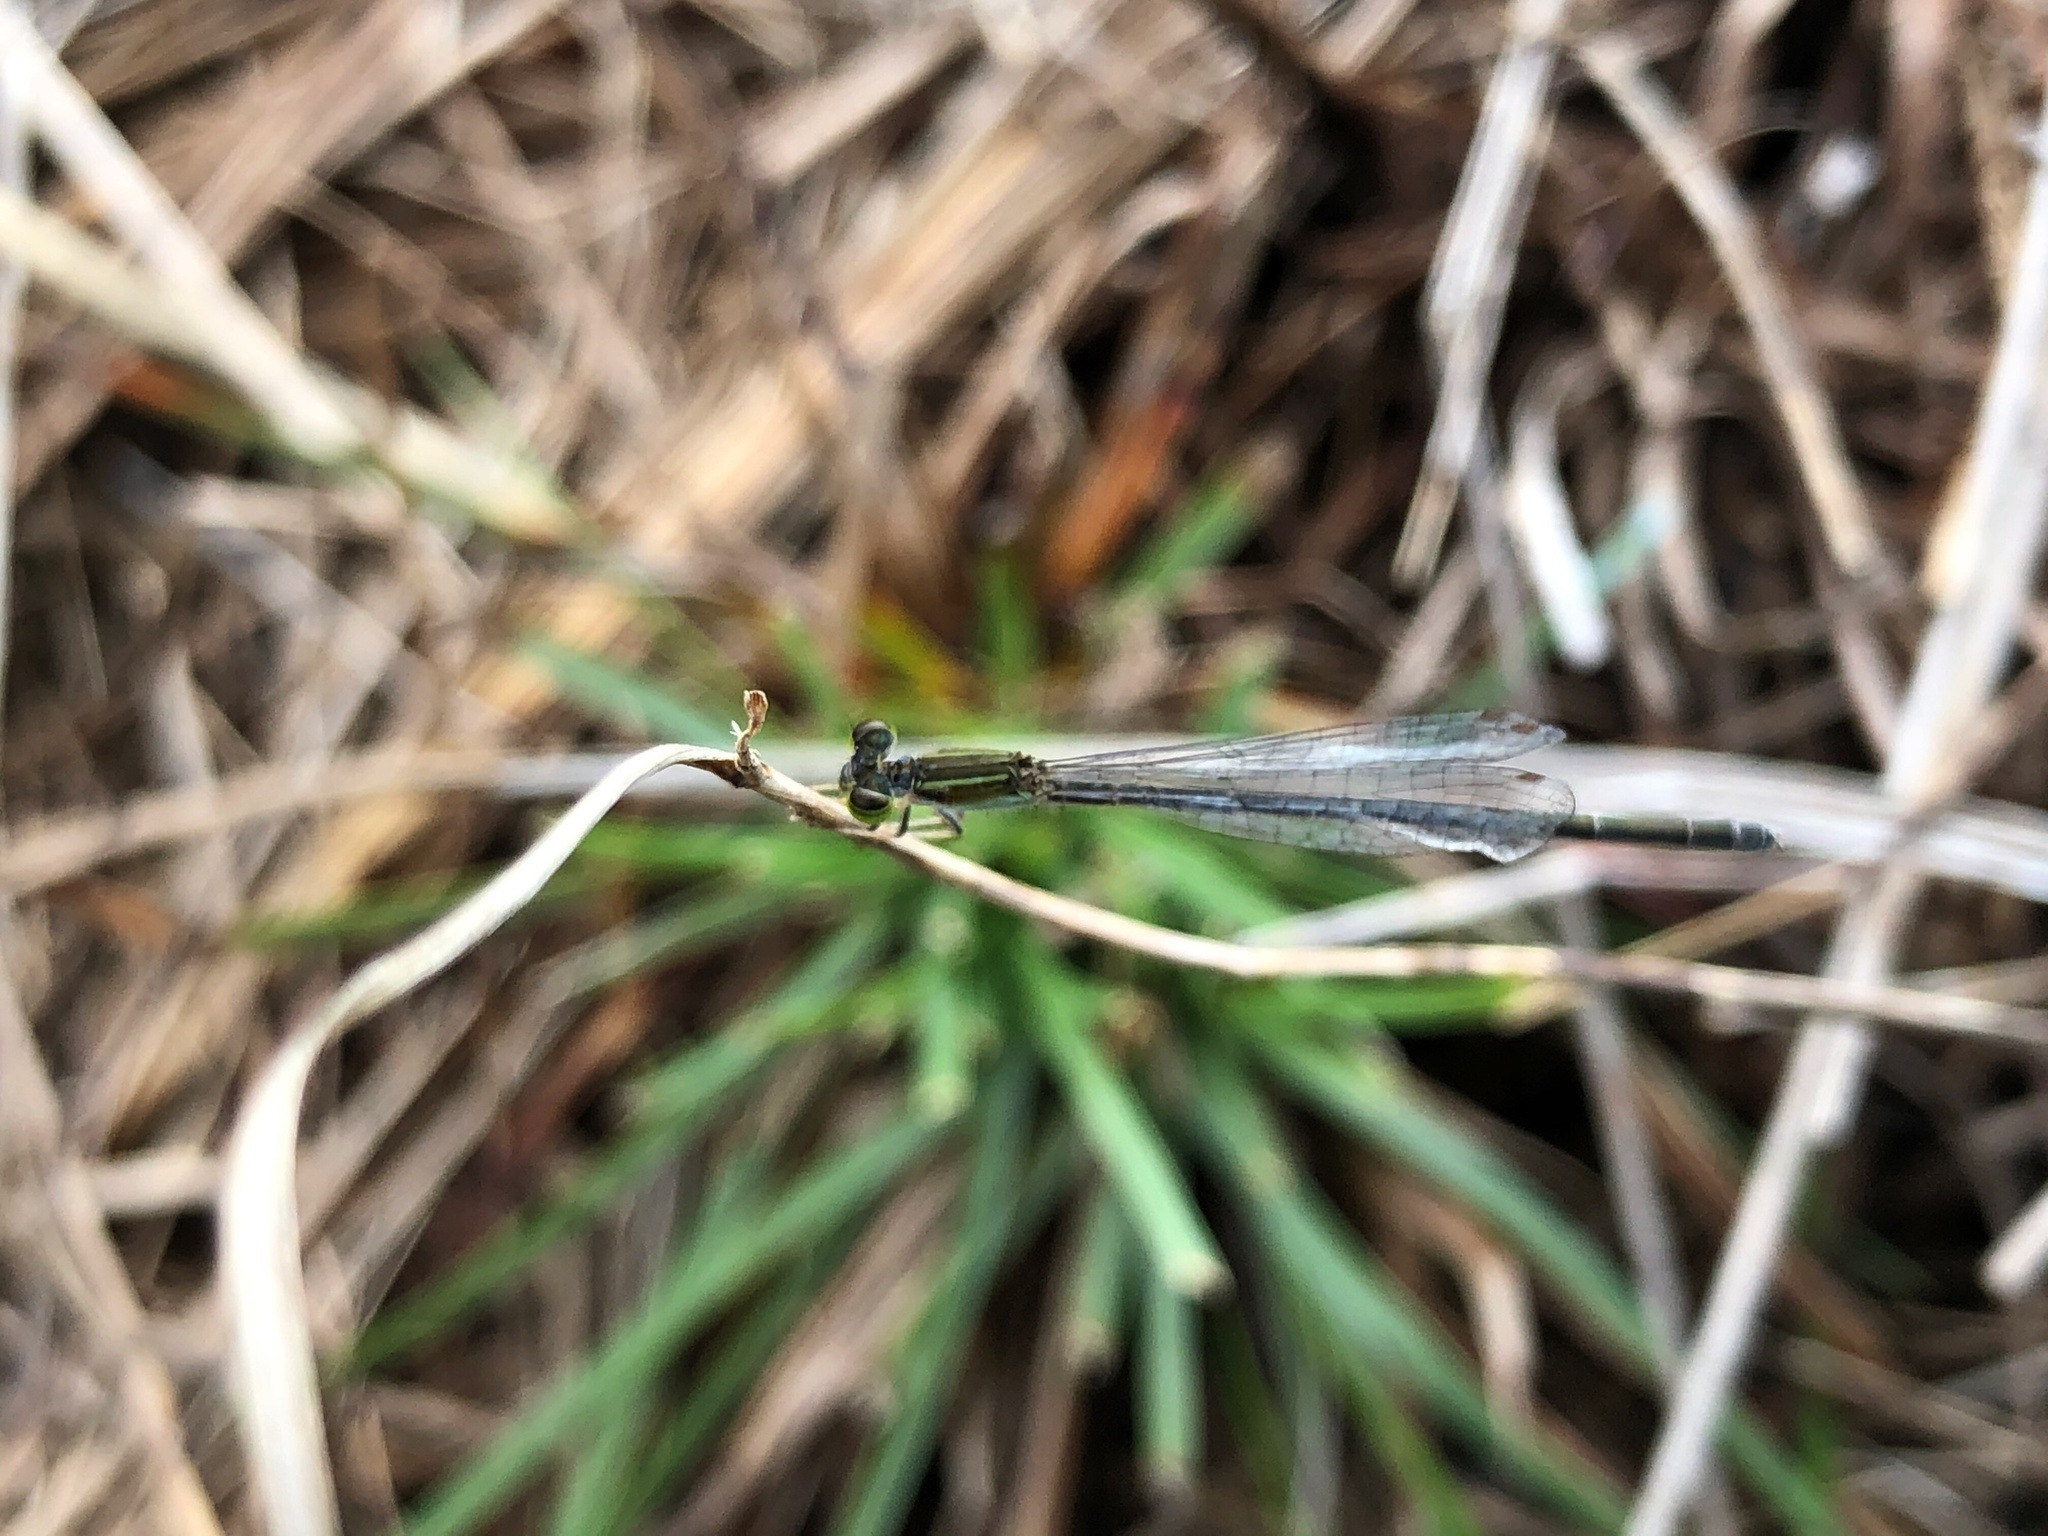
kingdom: Animalia
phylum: Arthropoda
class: Insecta
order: Odonata
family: Coenagrionidae
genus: Ischnura
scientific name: Ischnura hastata
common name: Citrine forktail
